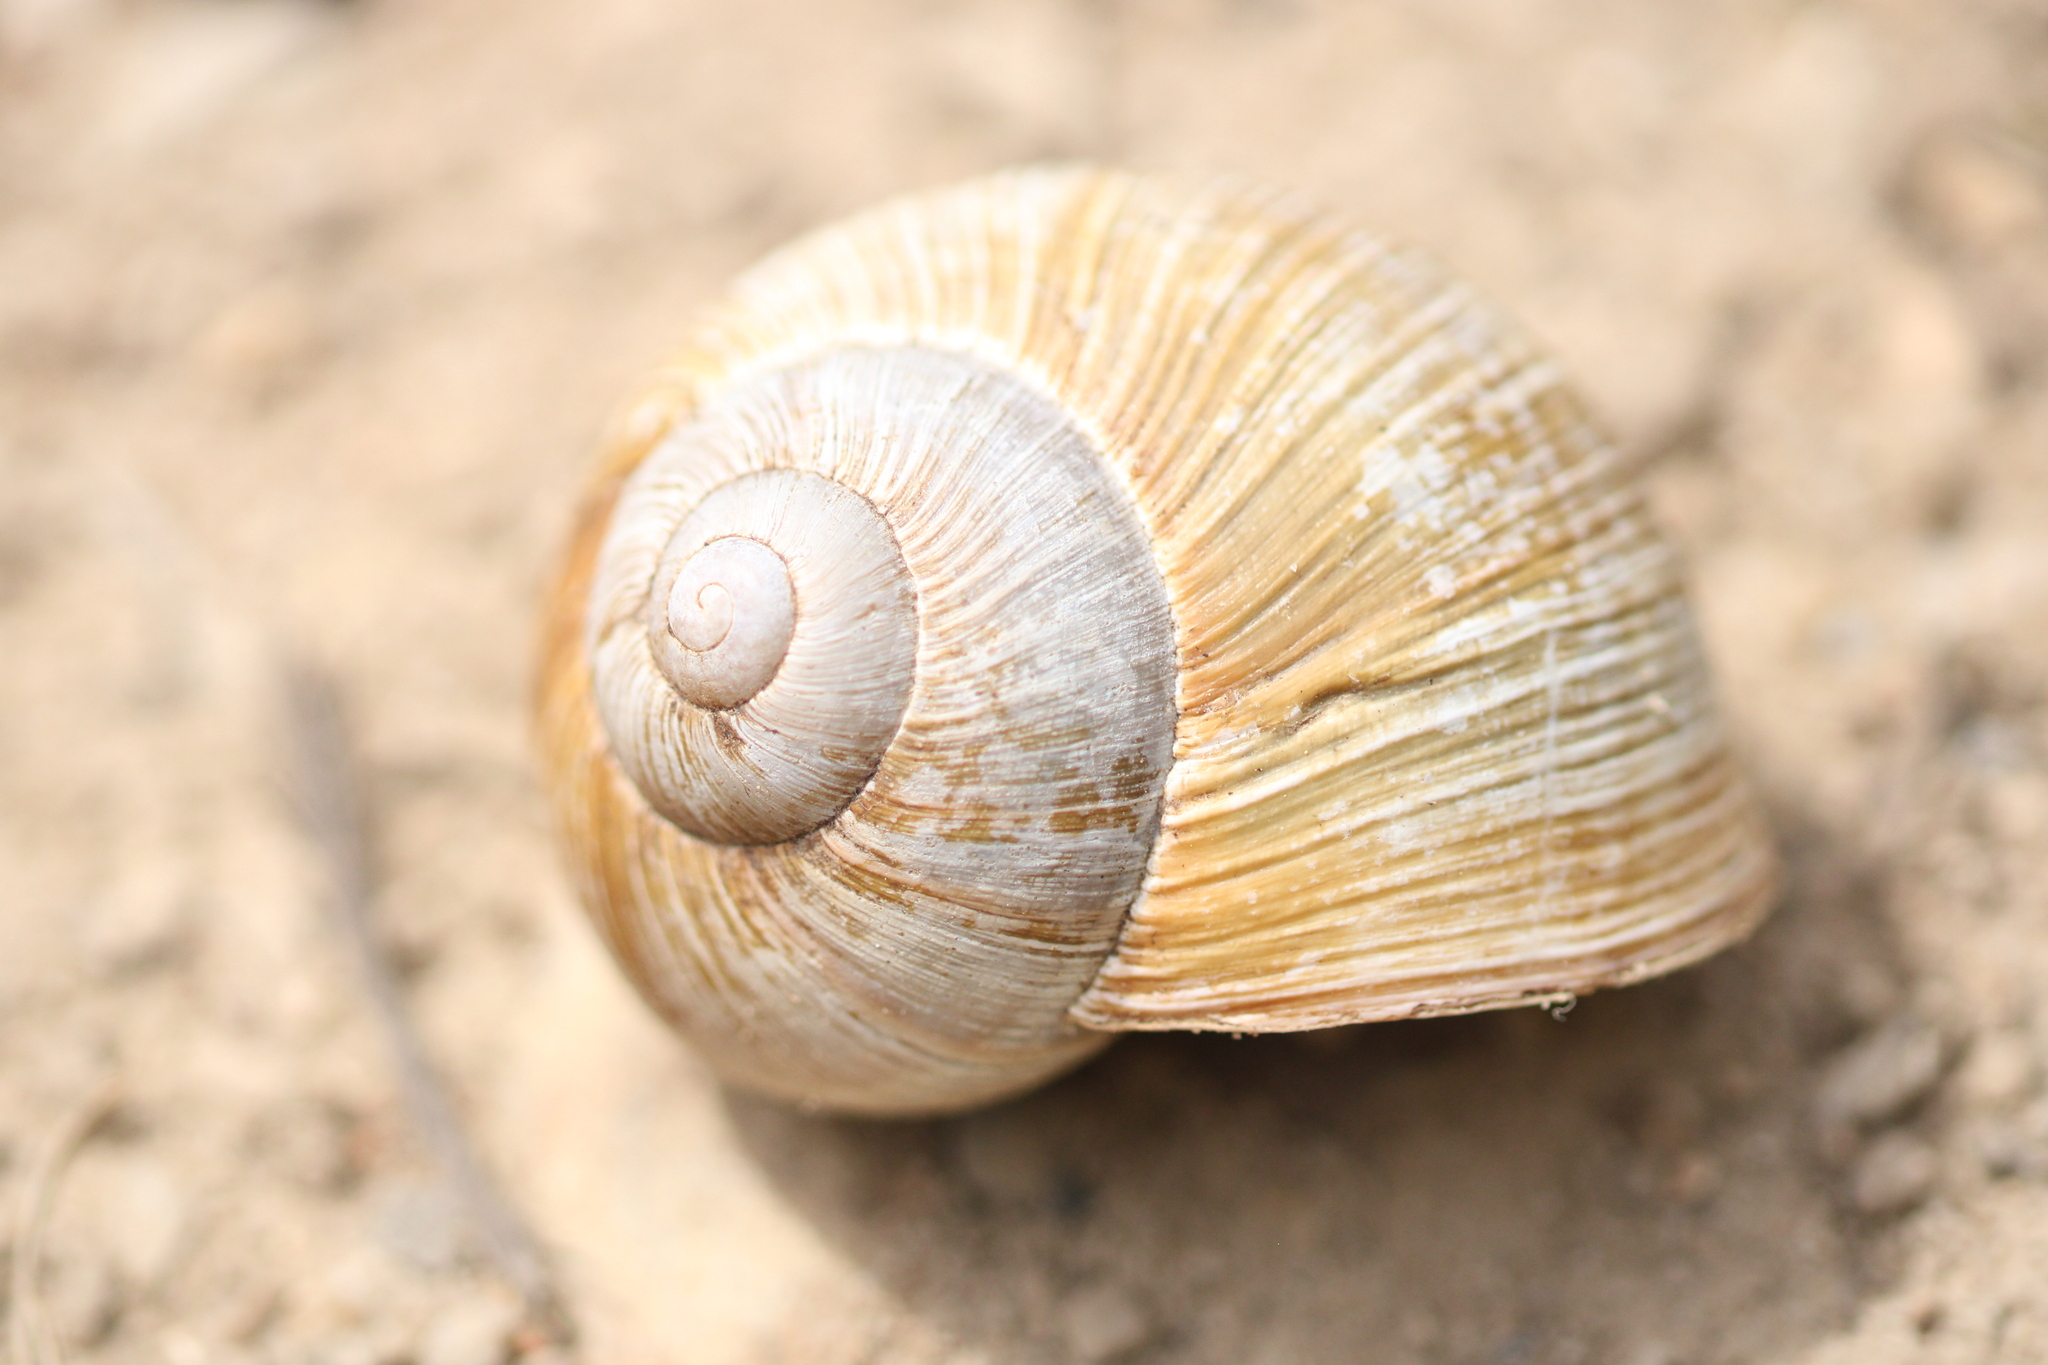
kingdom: Animalia
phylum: Mollusca
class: Gastropoda
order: Stylommatophora
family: Helicidae
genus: Helix
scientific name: Helix pomatia
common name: Roman snail
